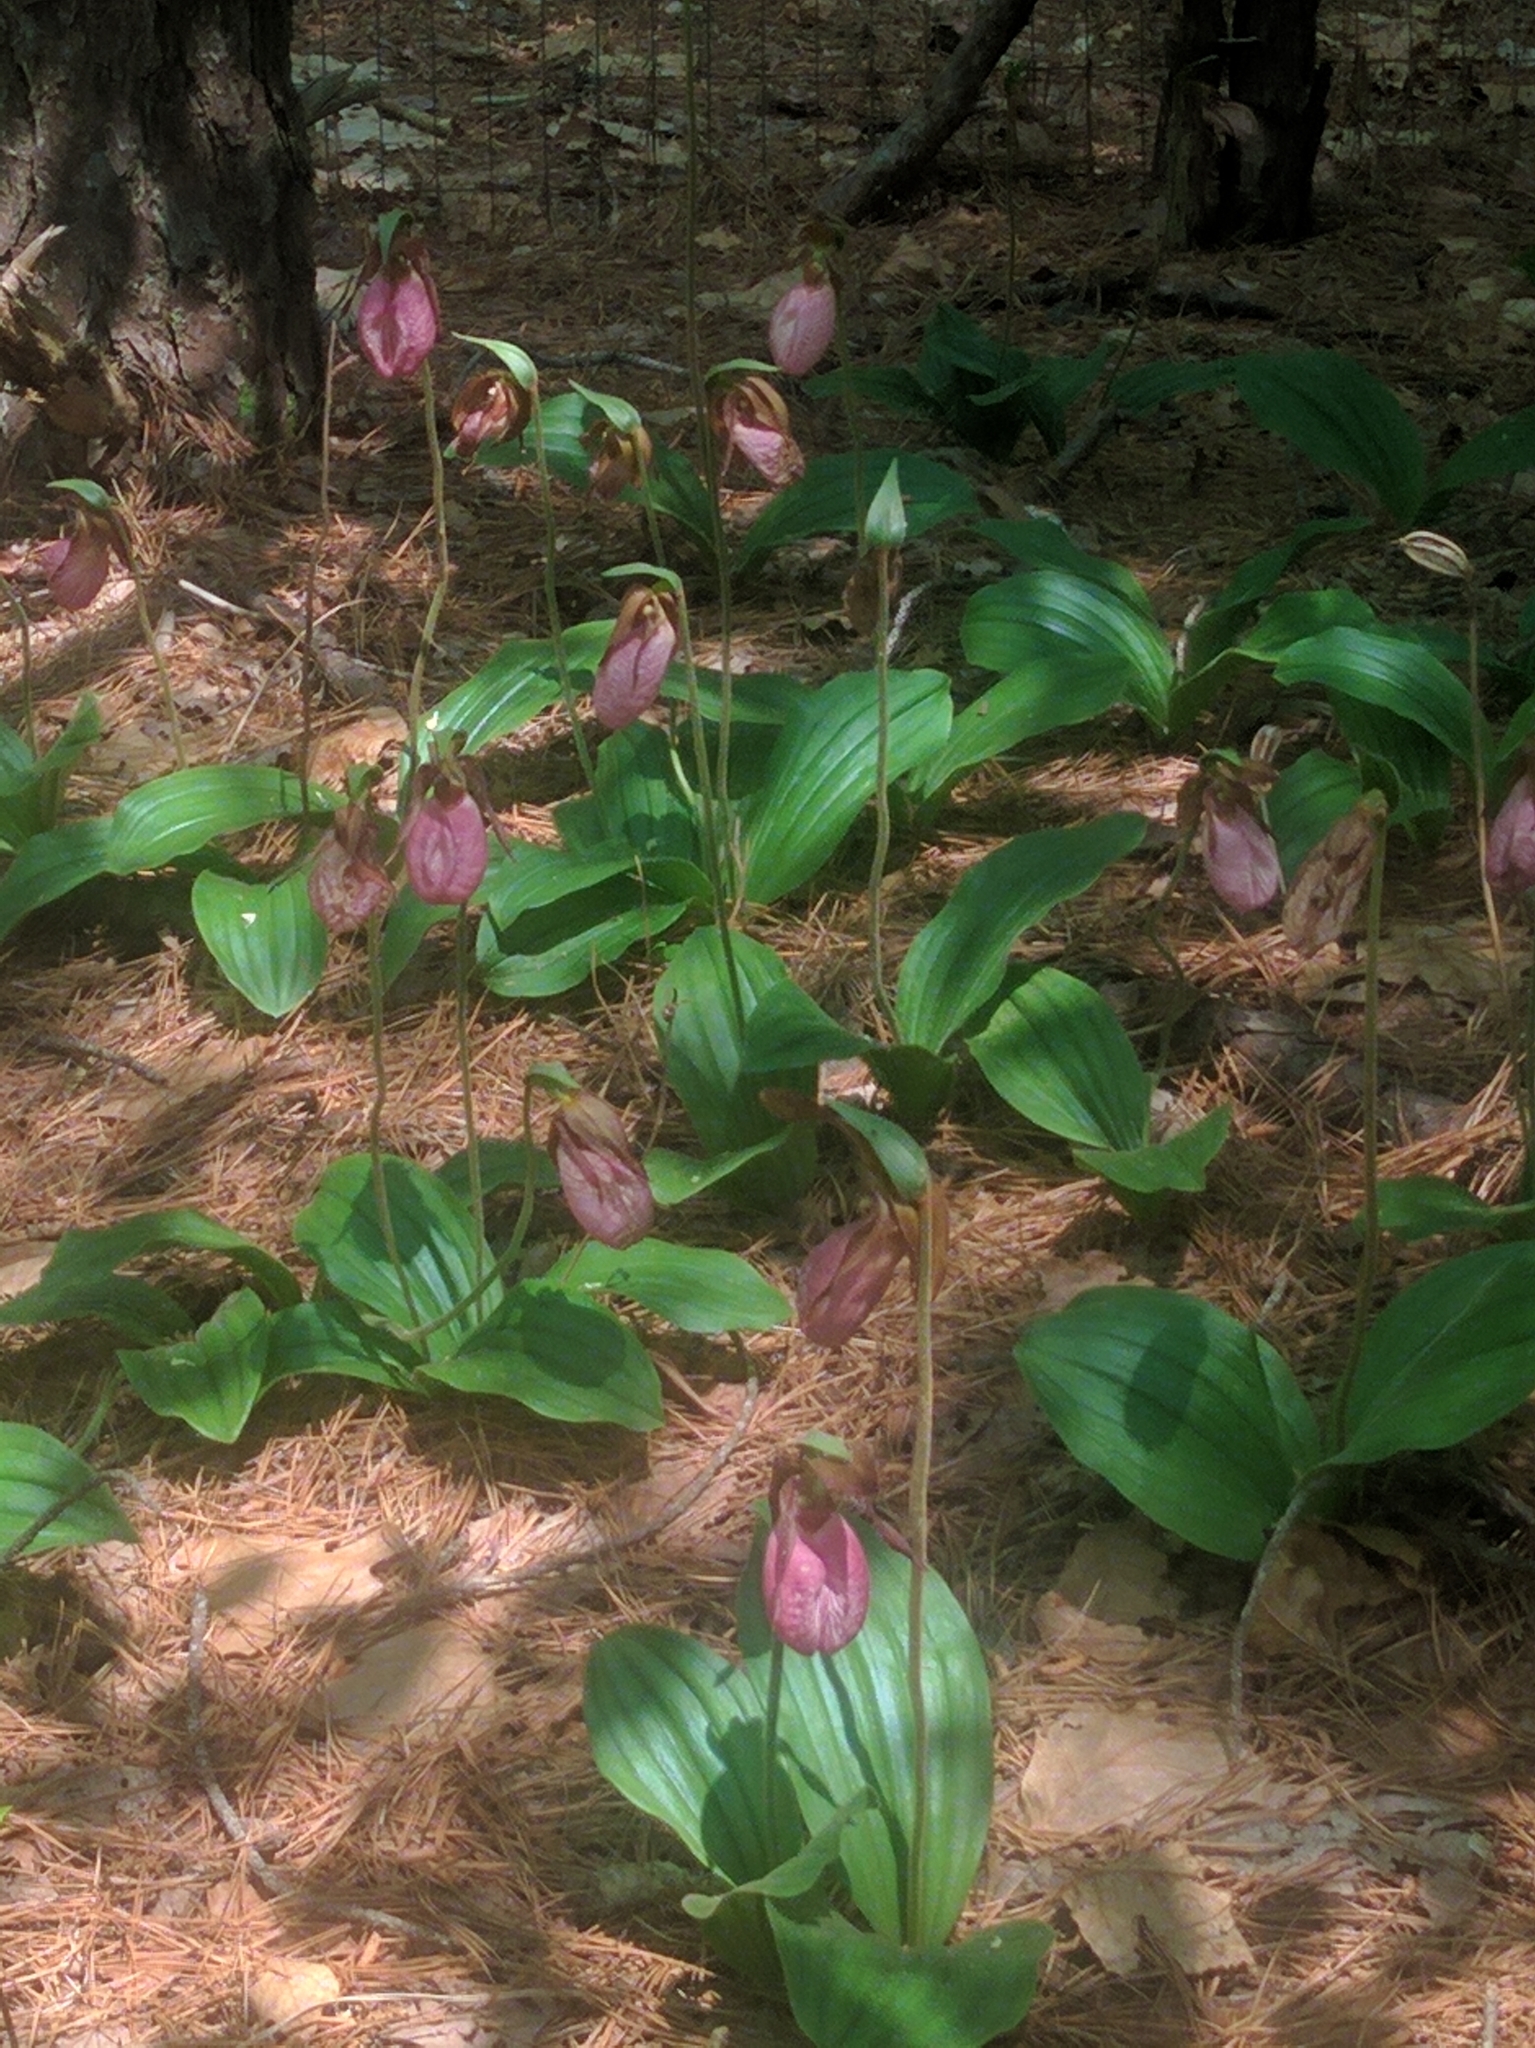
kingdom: Plantae
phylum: Tracheophyta
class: Liliopsida
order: Asparagales
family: Orchidaceae
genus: Cypripedium
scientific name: Cypripedium acaule
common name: Pink lady's-slipper
